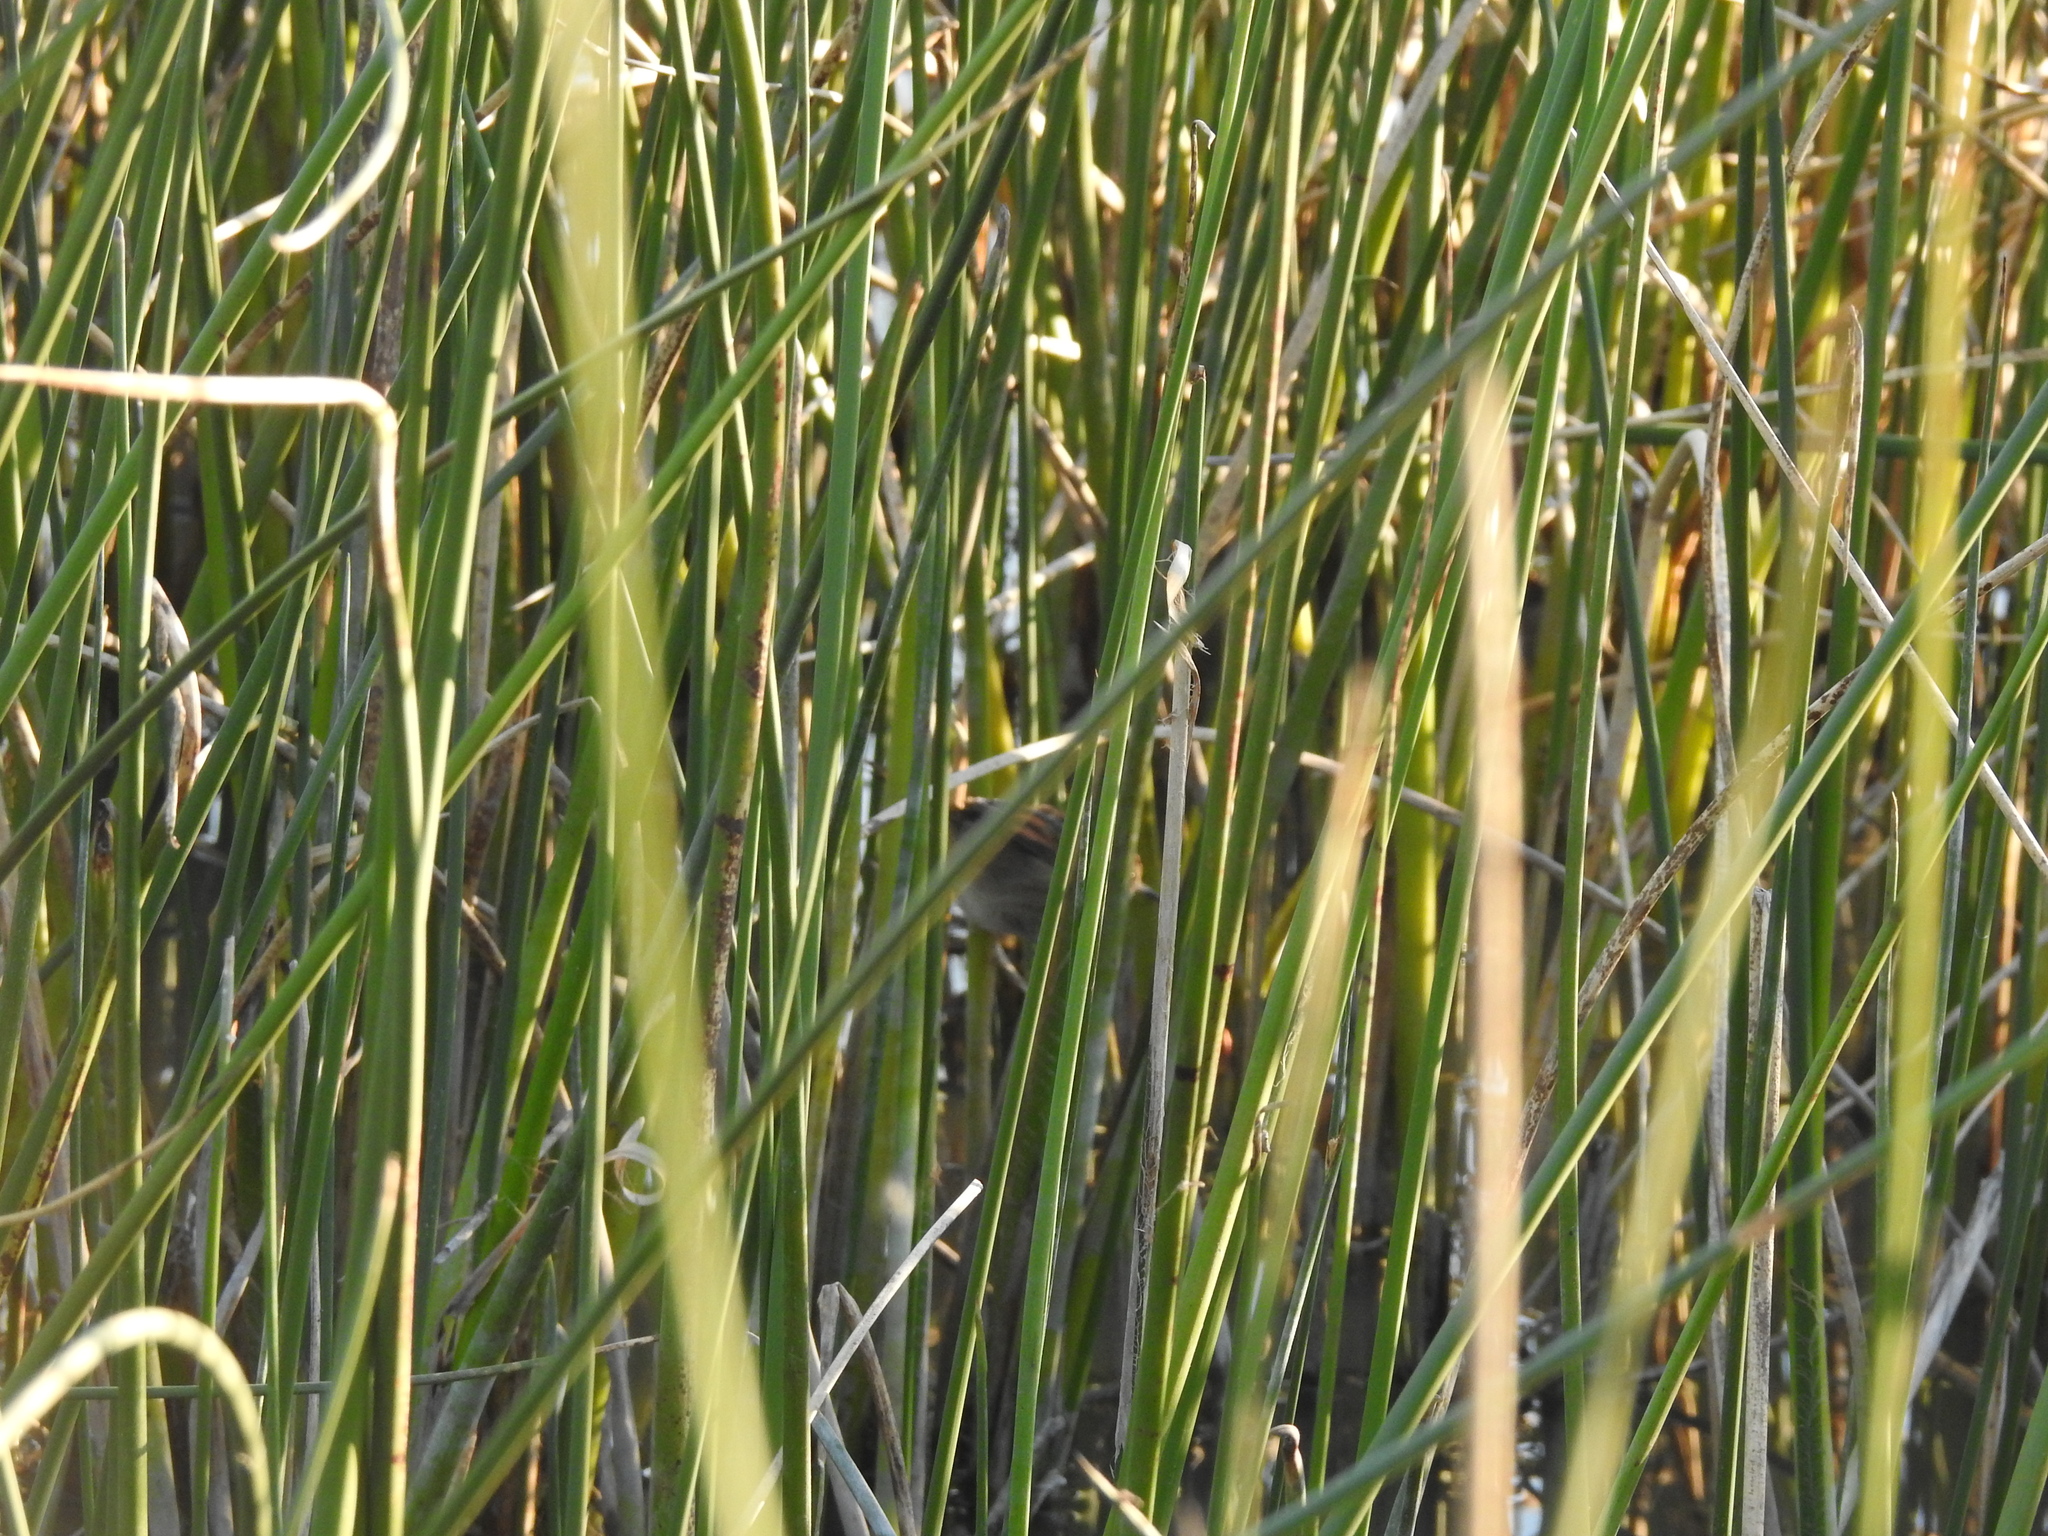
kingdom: Animalia
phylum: Chordata
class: Aves
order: Passeriformes
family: Furnariidae
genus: Phleocryptes
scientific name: Phleocryptes melanops
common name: Wren-like rushbird
